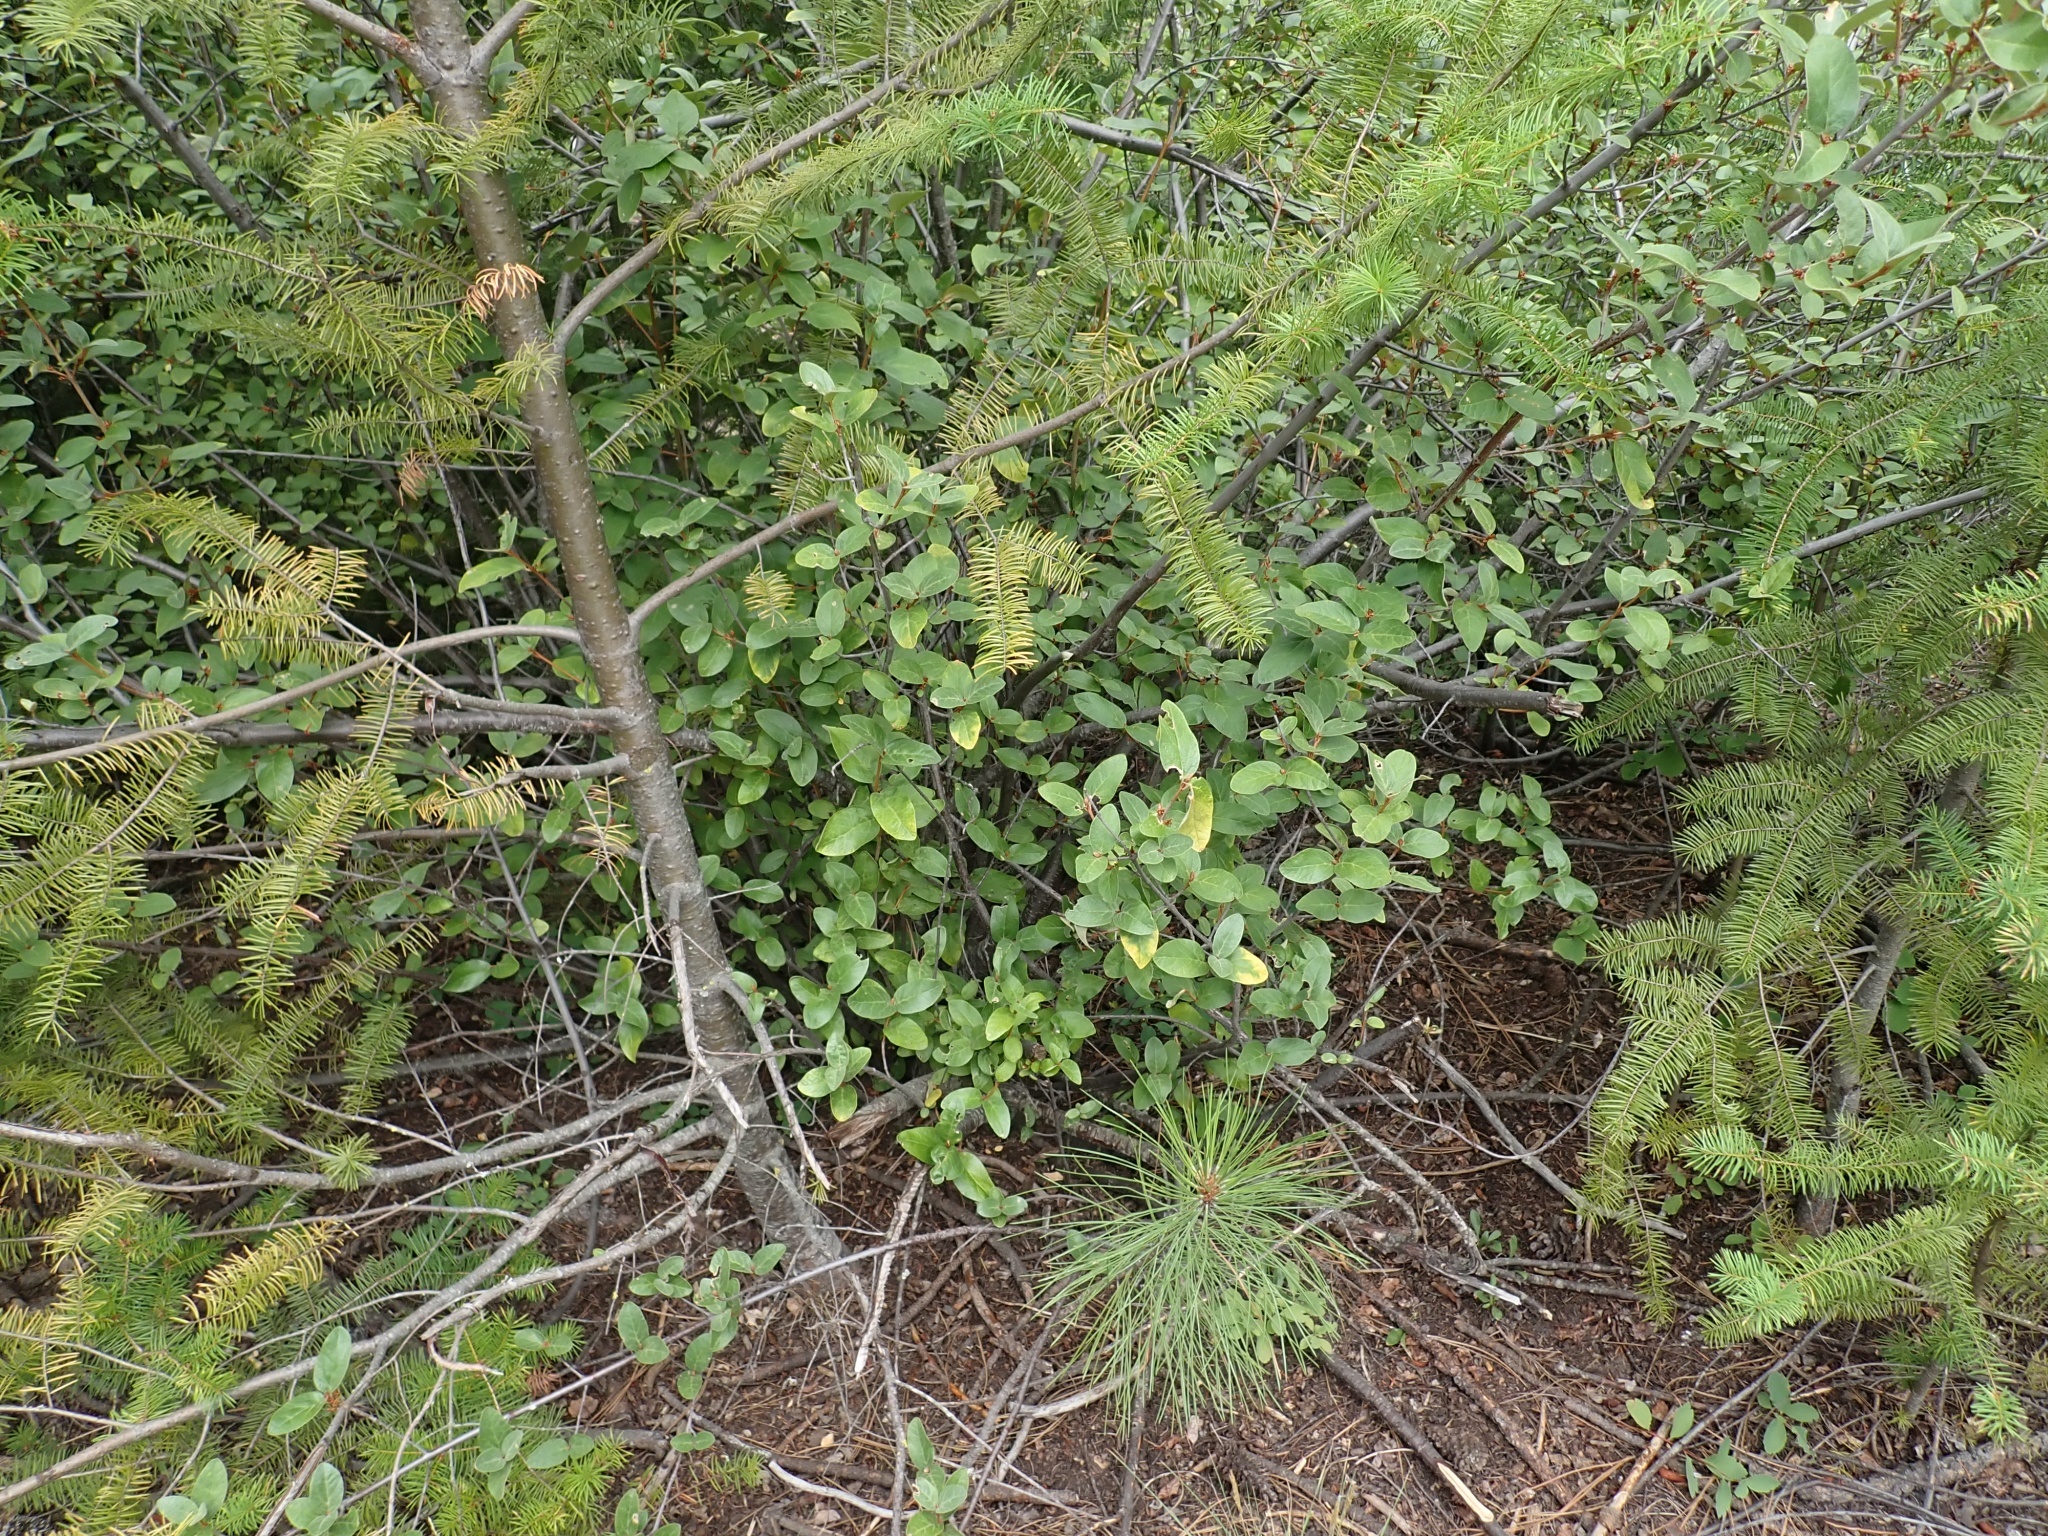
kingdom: Plantae
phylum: Tracheophyta
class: Magnoliopsida
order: Rosales
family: Elaeagnaceae
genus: Shepherdia
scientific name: Shepherdia canadensis
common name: Soapberry
